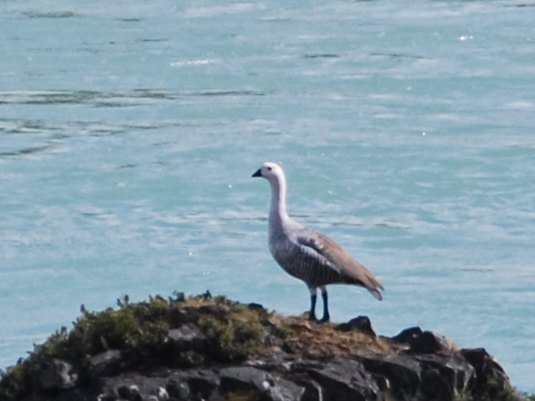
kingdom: Animalia
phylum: Chordata
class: Aves
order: Anseriformes
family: Anatidae
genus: Chloephaga
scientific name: Chloephaga picta
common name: Upland goose
